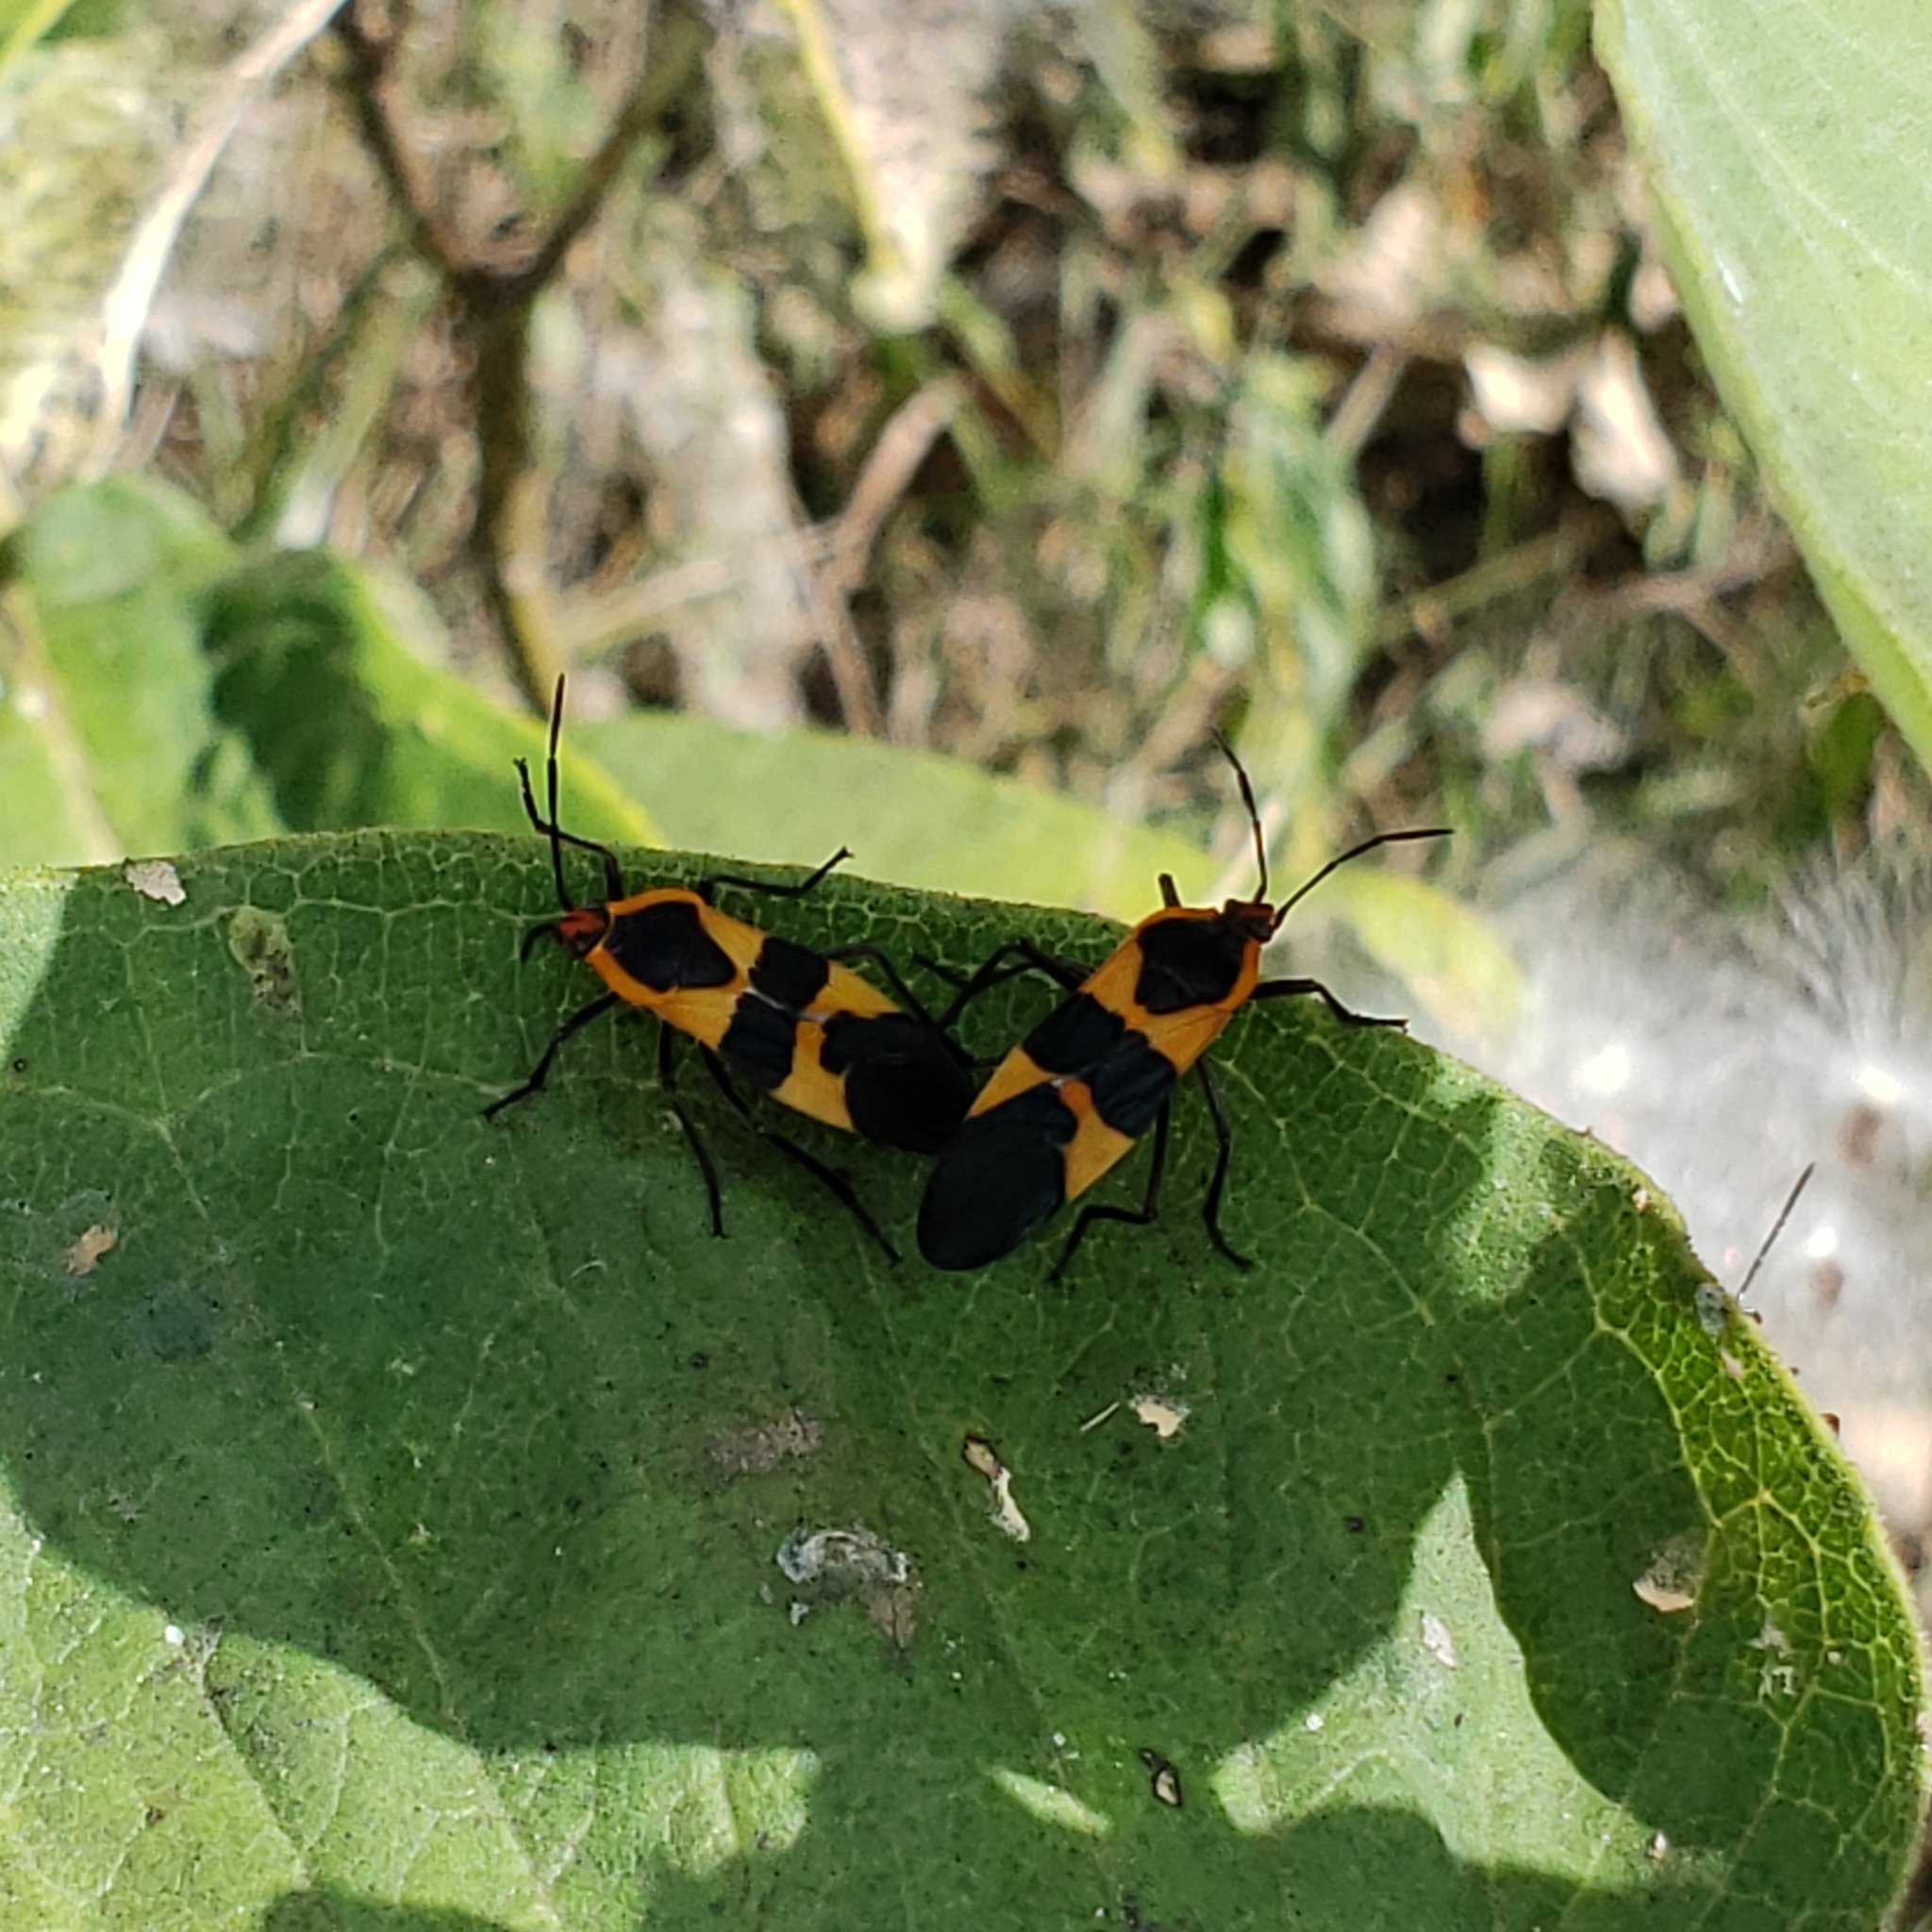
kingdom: Animalia
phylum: Arthropoda
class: Insecta
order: Hemiptera
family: Lygaeidae
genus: Oncopeltus
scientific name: Oncopeltus fasciatus
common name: Large milkweed bug
